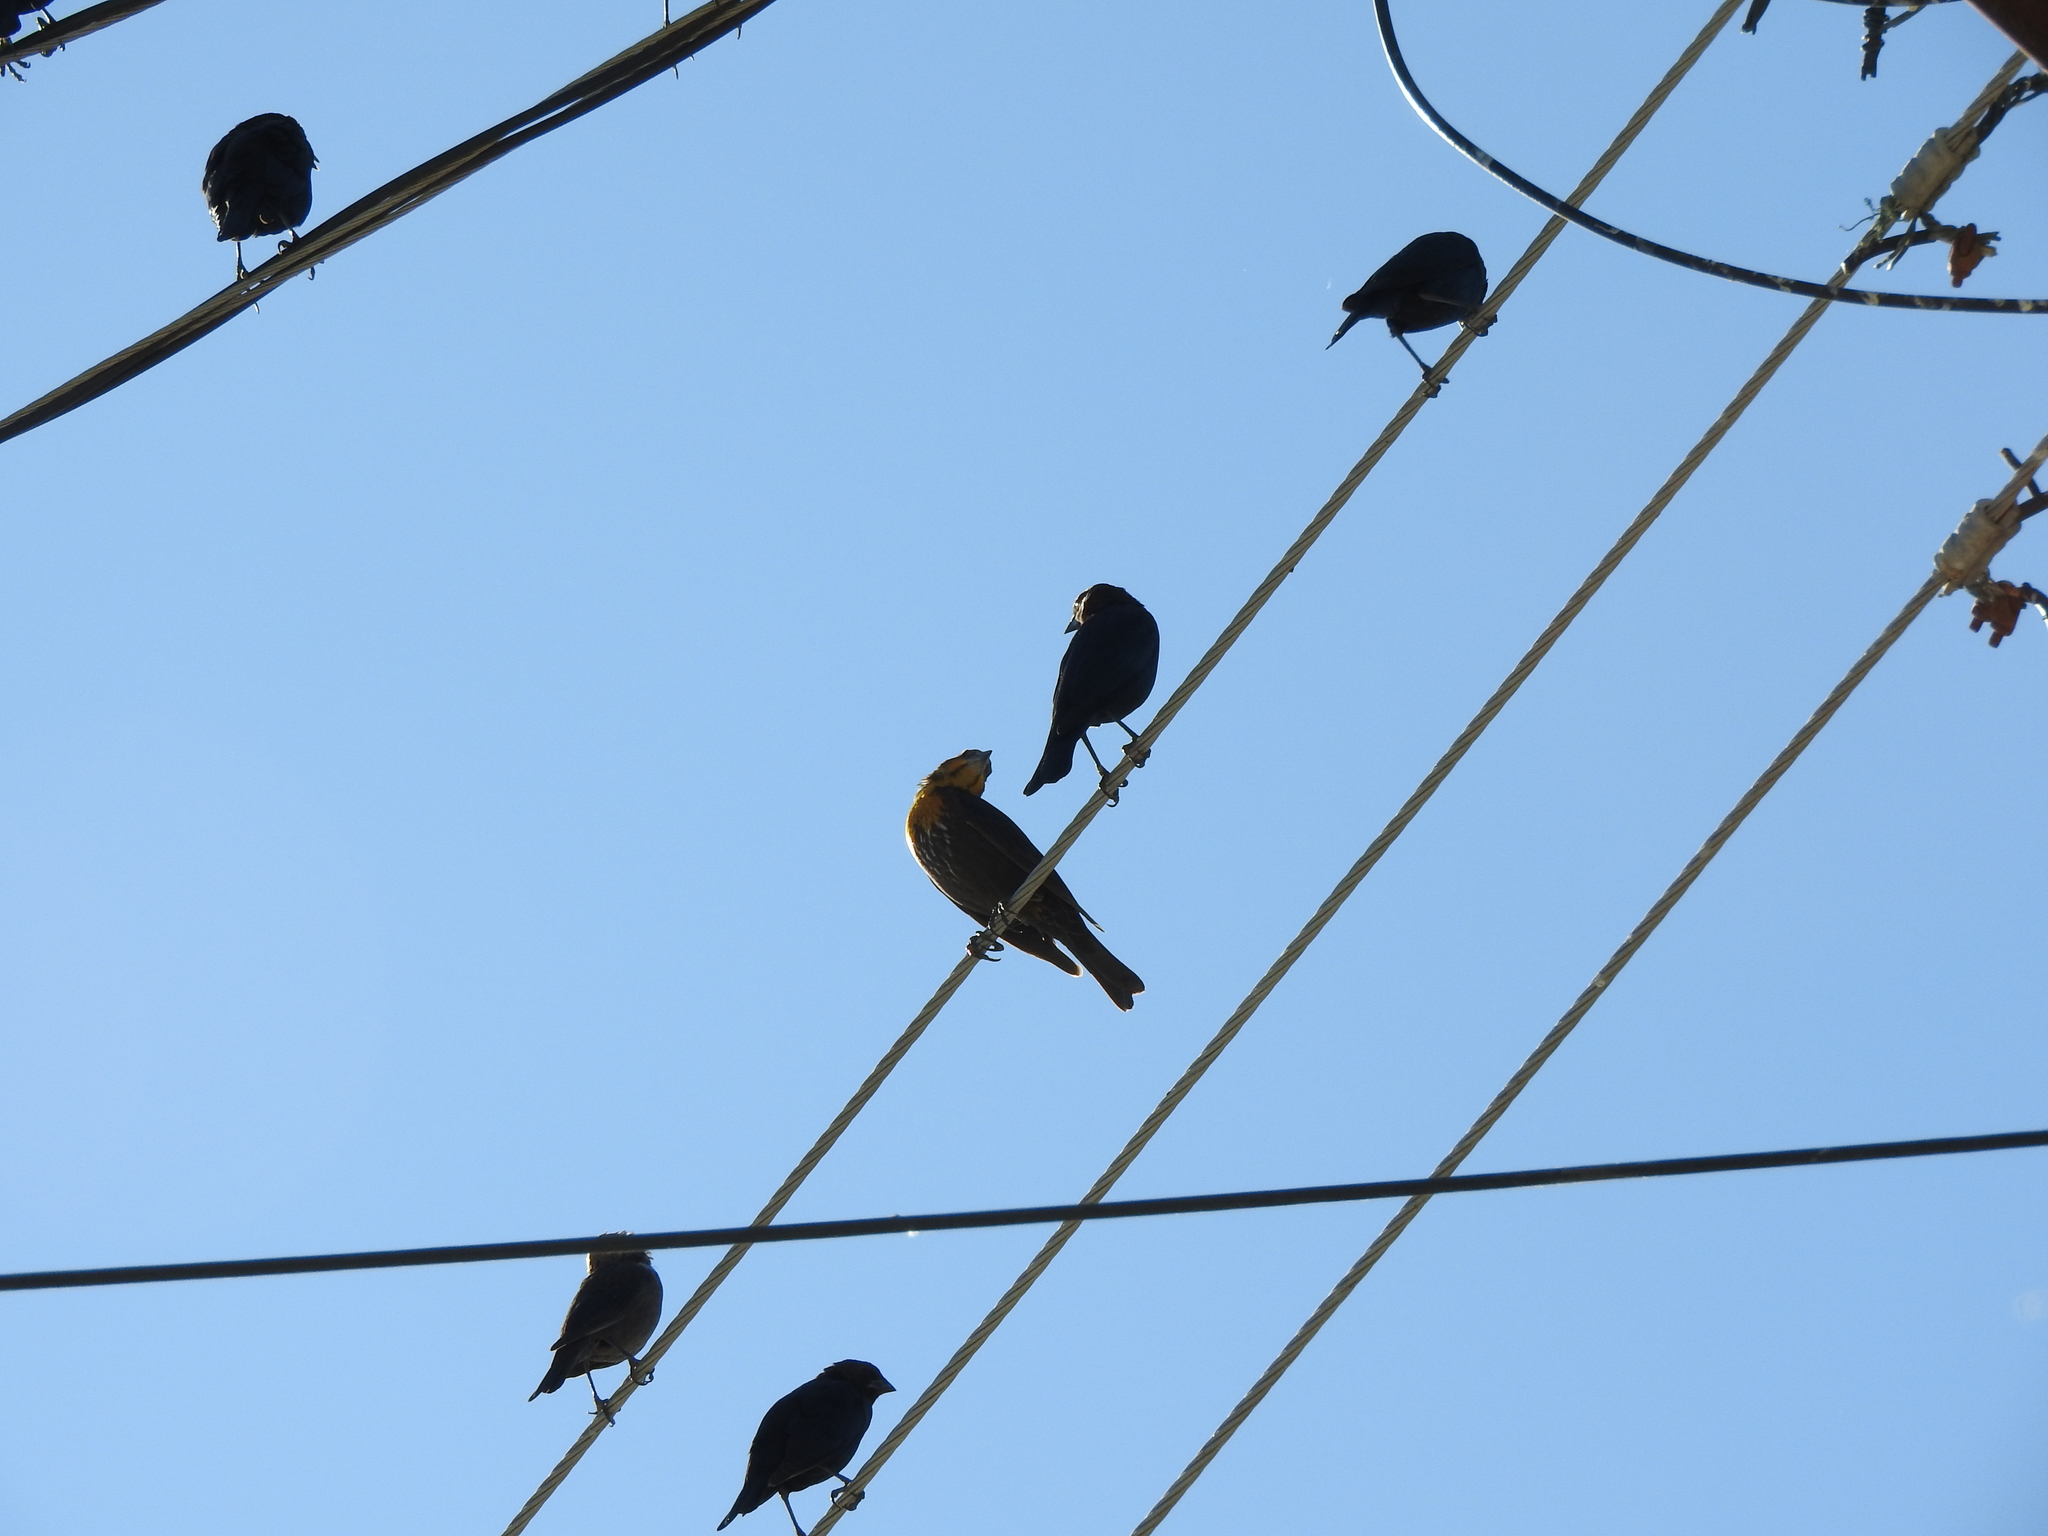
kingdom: Animalia
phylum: Chordata
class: Aves
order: Passeriformes
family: Icteridae
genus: Xanthocephalus
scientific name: Xanthocephalus xanthocephalus
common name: Yellow-headed blackbird
